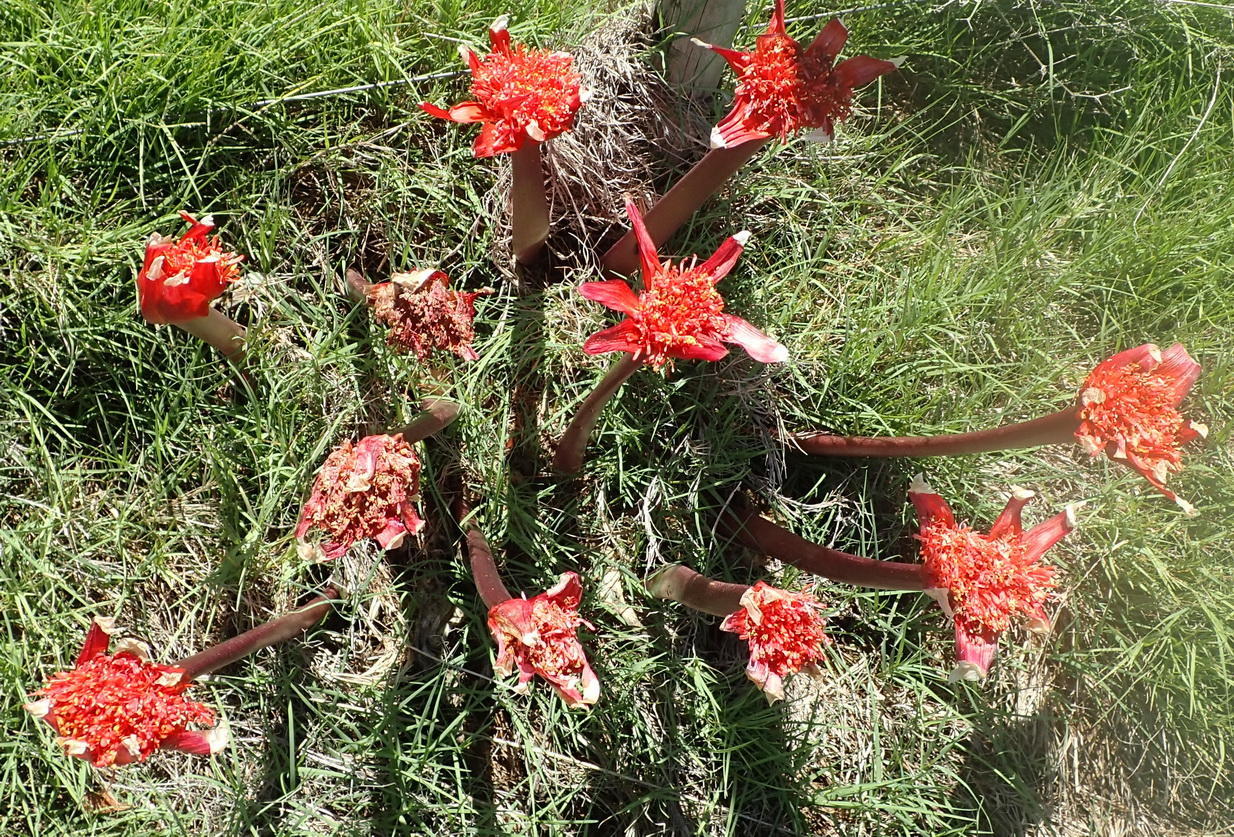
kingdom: Plantae
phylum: Tracheophyta
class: Liliopsida
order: Asparagales
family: Amaryllidaceae
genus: Haemanthus
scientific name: Haemanthus coccineus
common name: Cape-tulip
